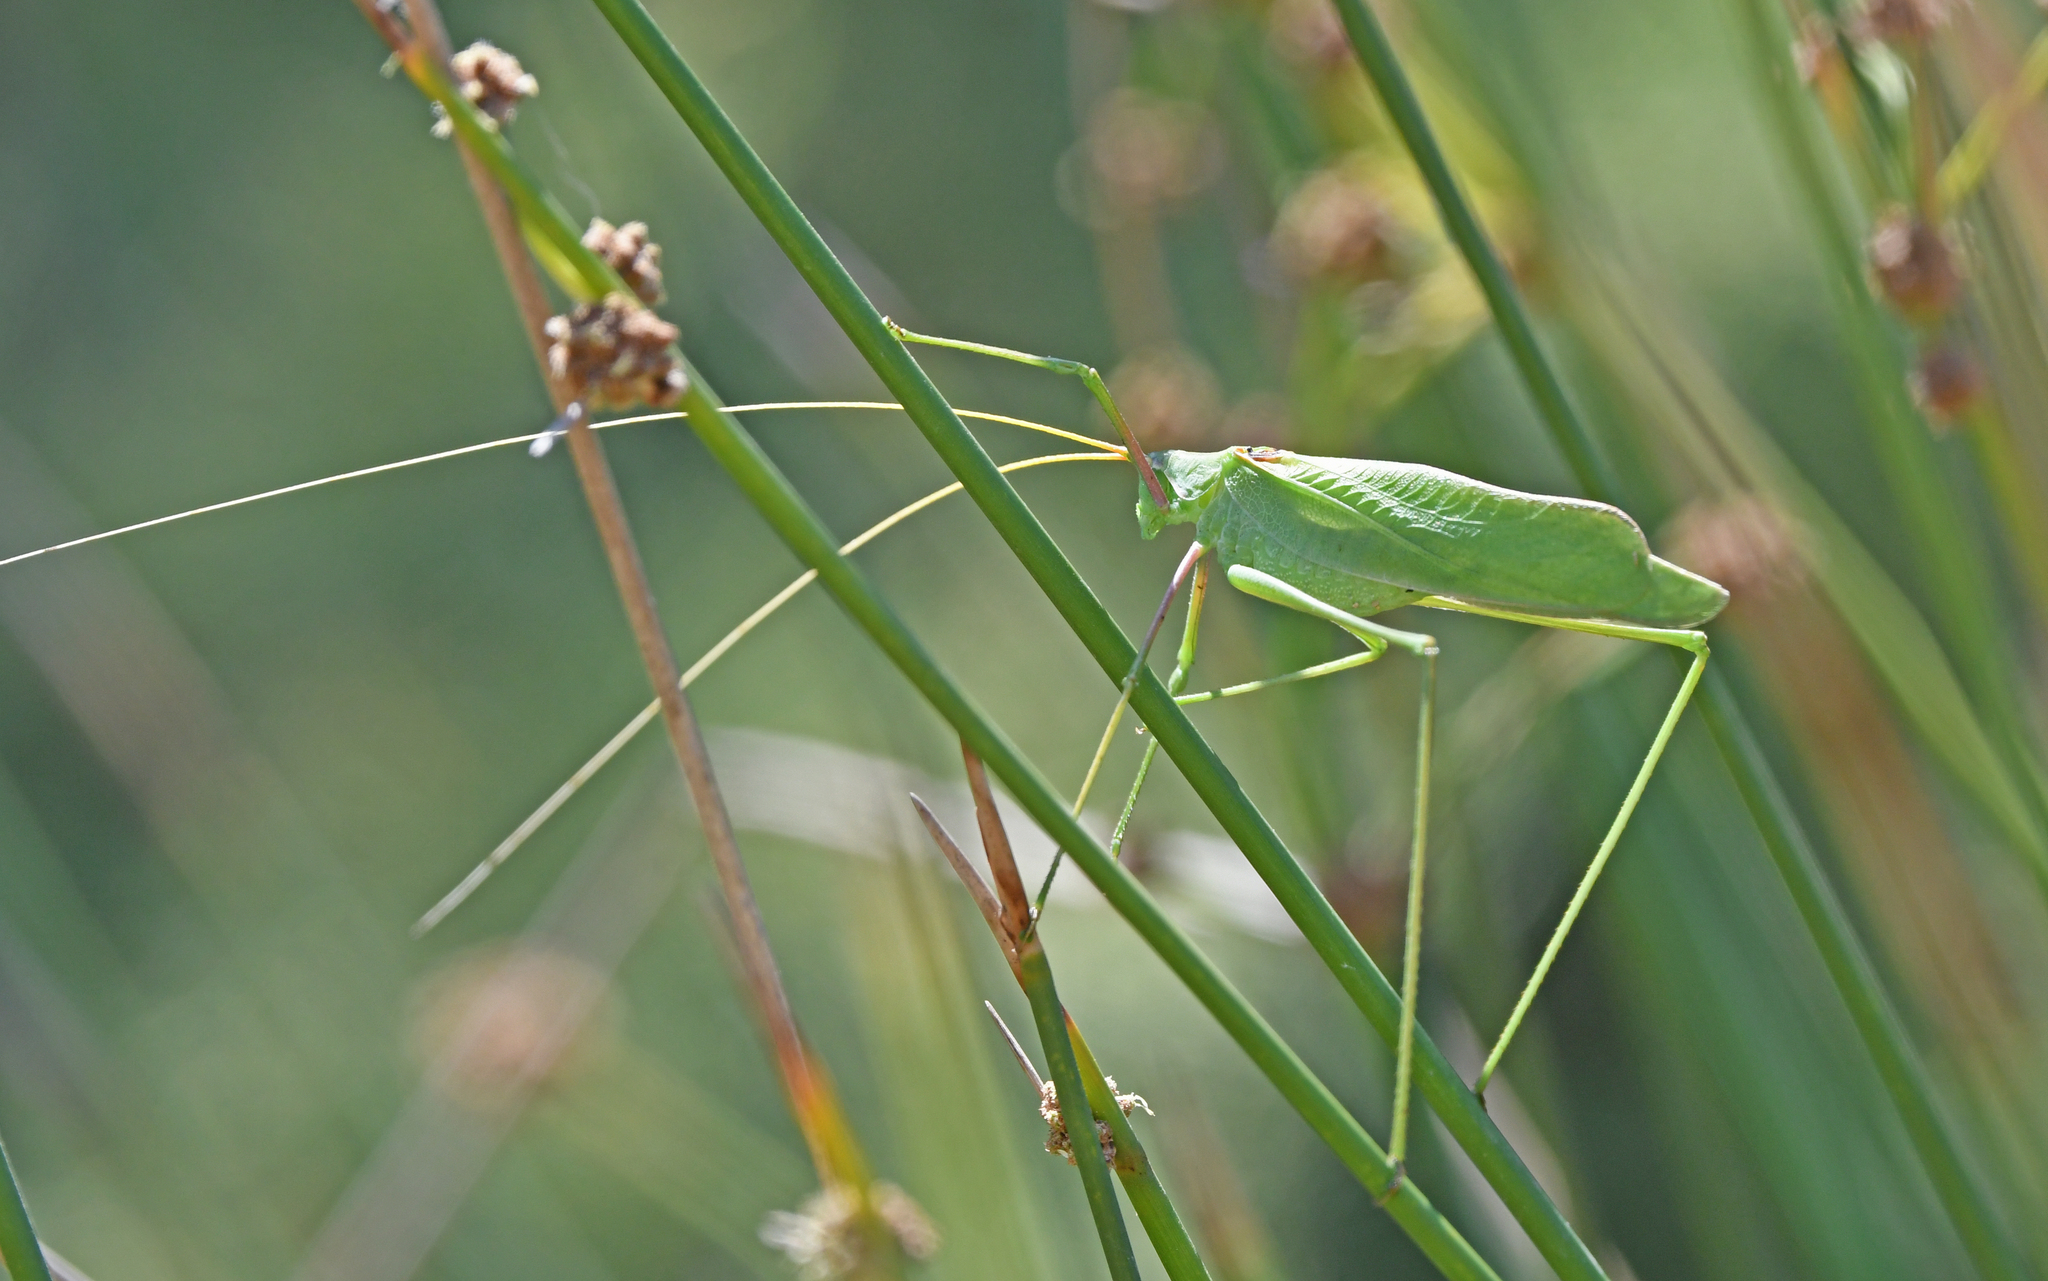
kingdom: Animalia
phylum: Arthropoda
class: Insecta
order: Orthoptera
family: Tettigoniidae
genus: Acrometopa
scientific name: Acrometopa italica
